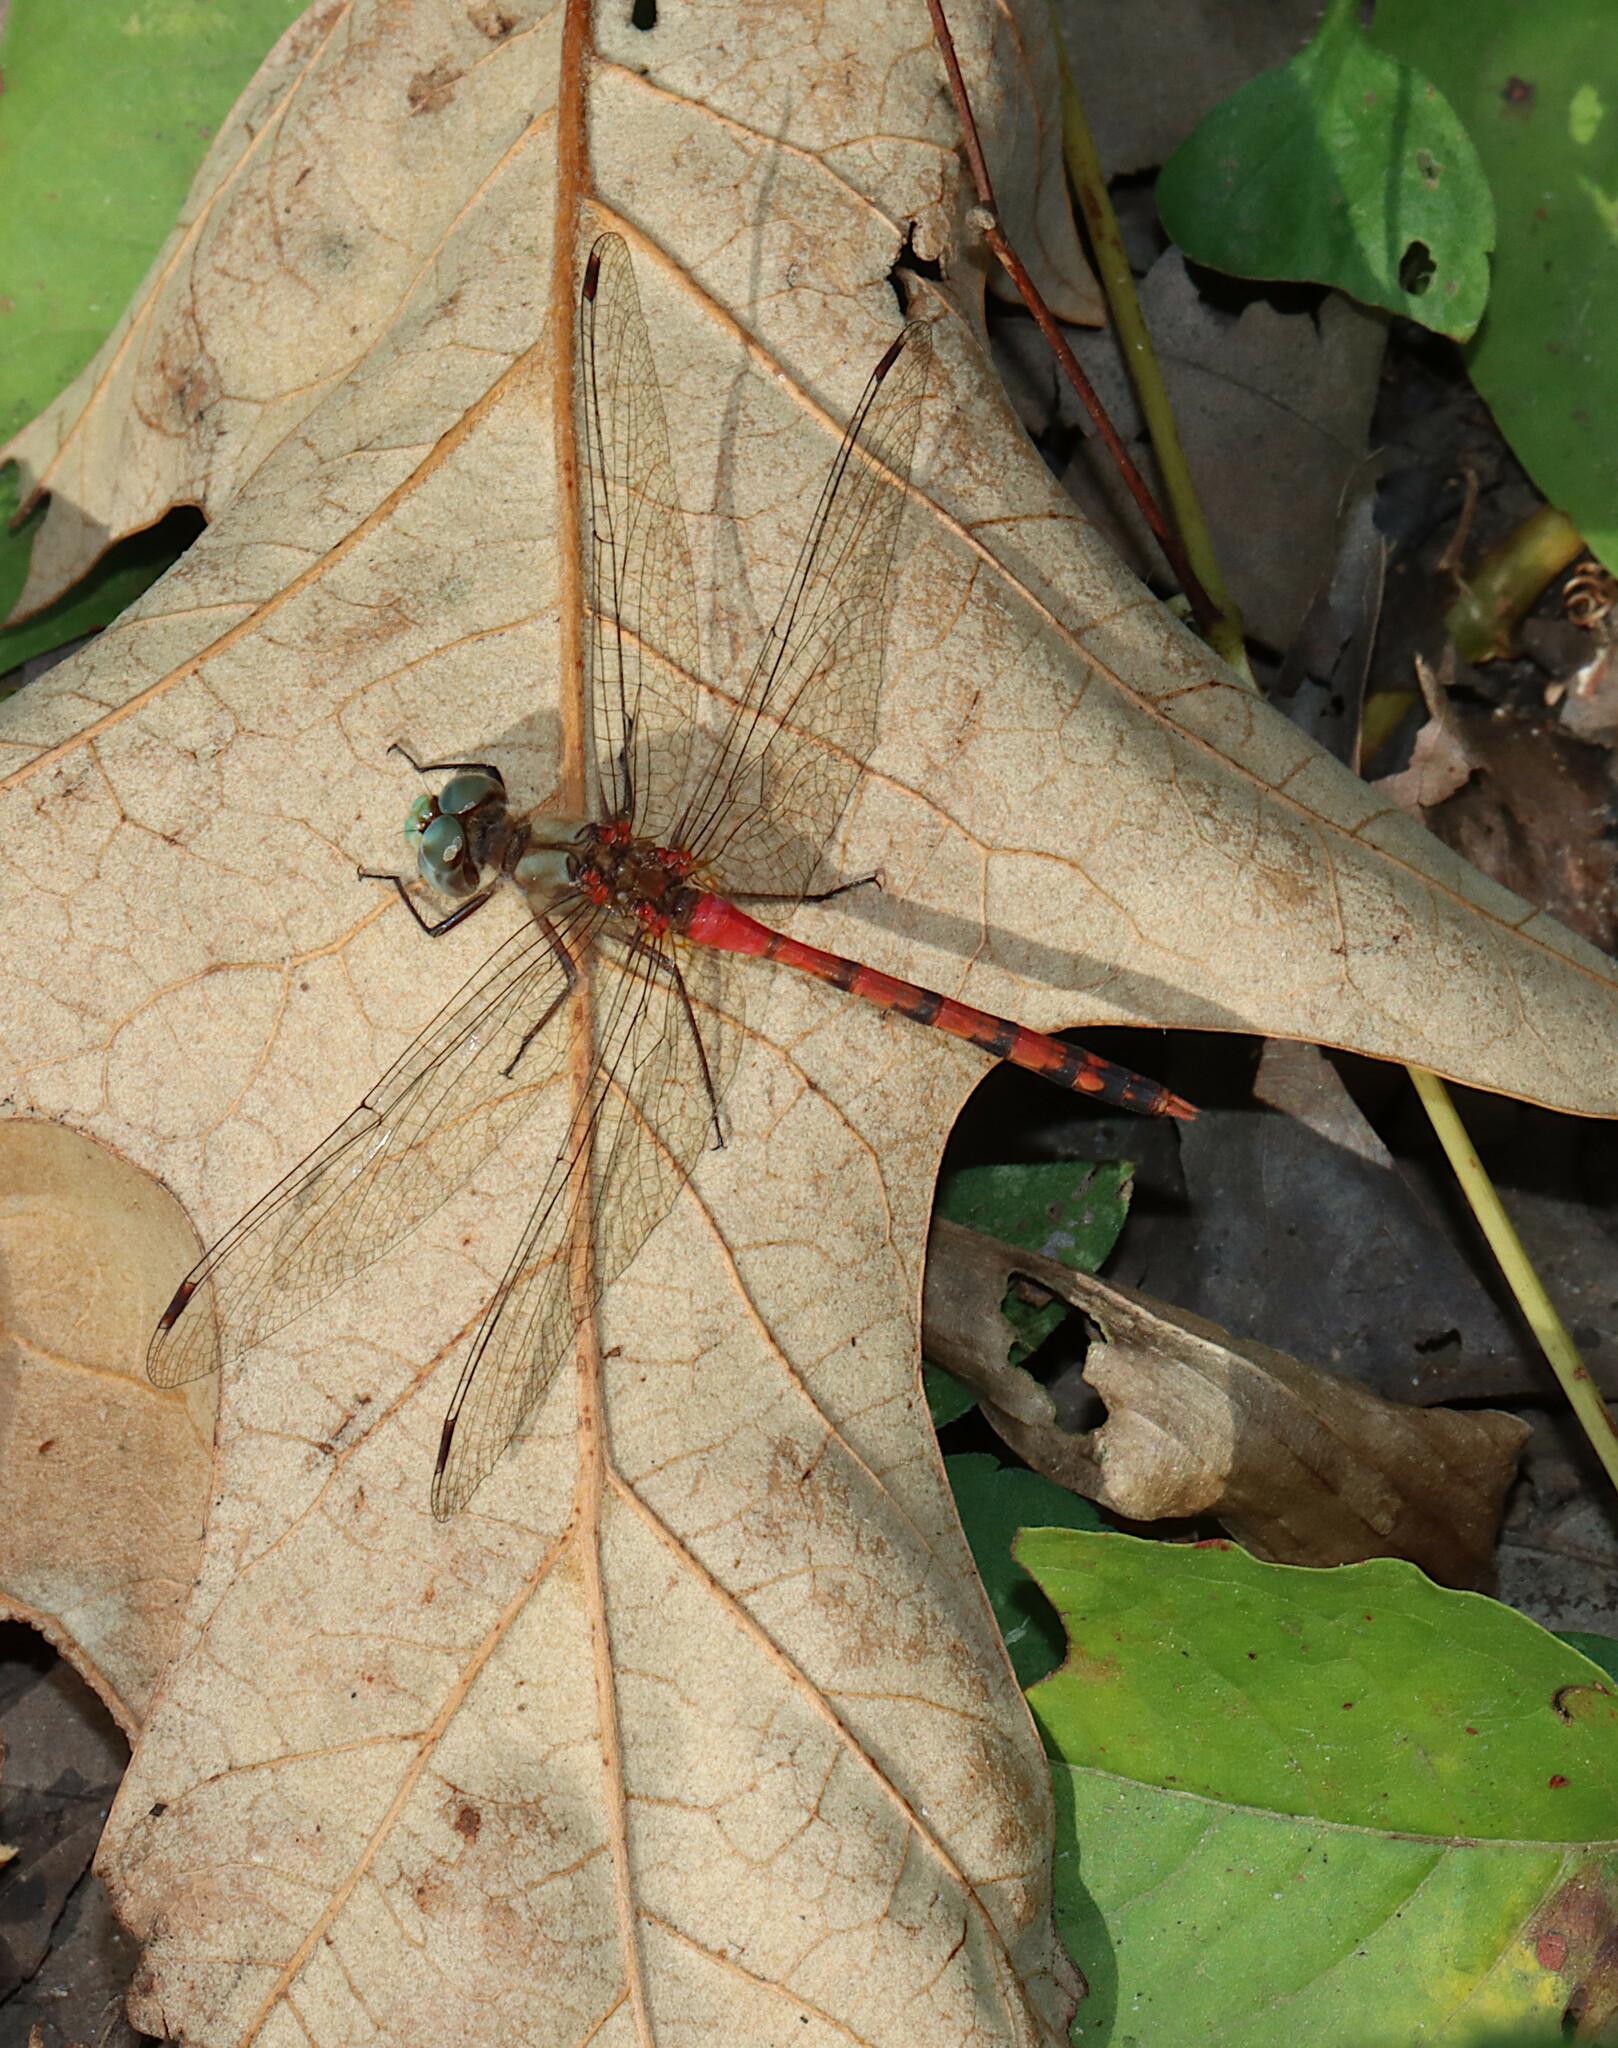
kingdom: Animalia
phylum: Arthropoda
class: Insecta
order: Odonata
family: Libellulidae
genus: Sympetrum
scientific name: Sympetrum ambiguum
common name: Blue-faced meadowhawk
